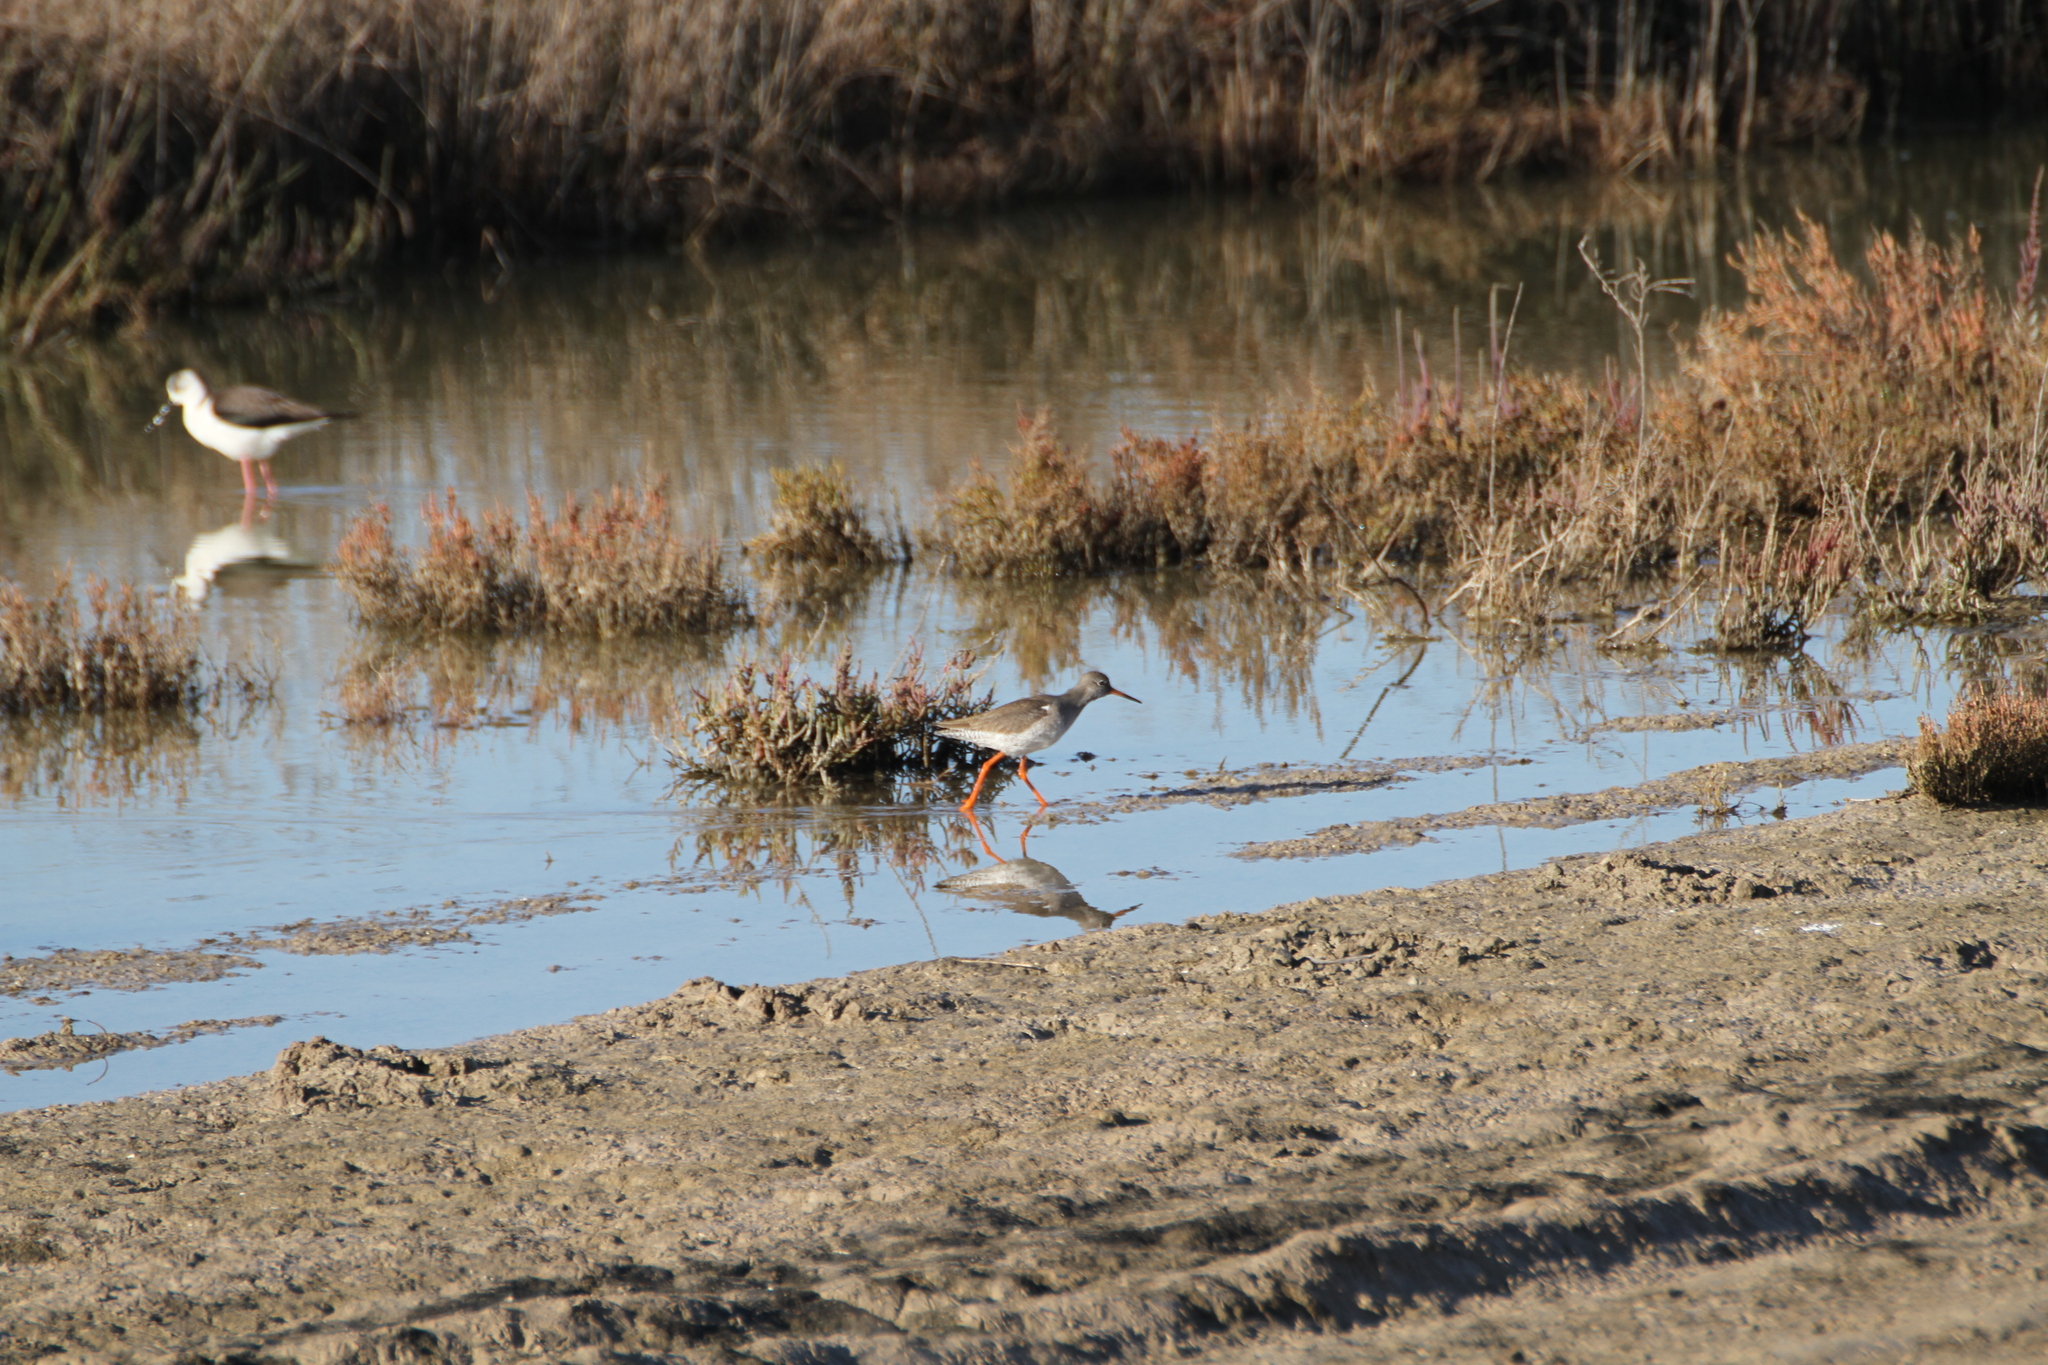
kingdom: Animalia
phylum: Chordata
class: Aves
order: Charadriiformes
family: Scolopacidae
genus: Tringa
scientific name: Tringa totanus
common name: Common redshank
